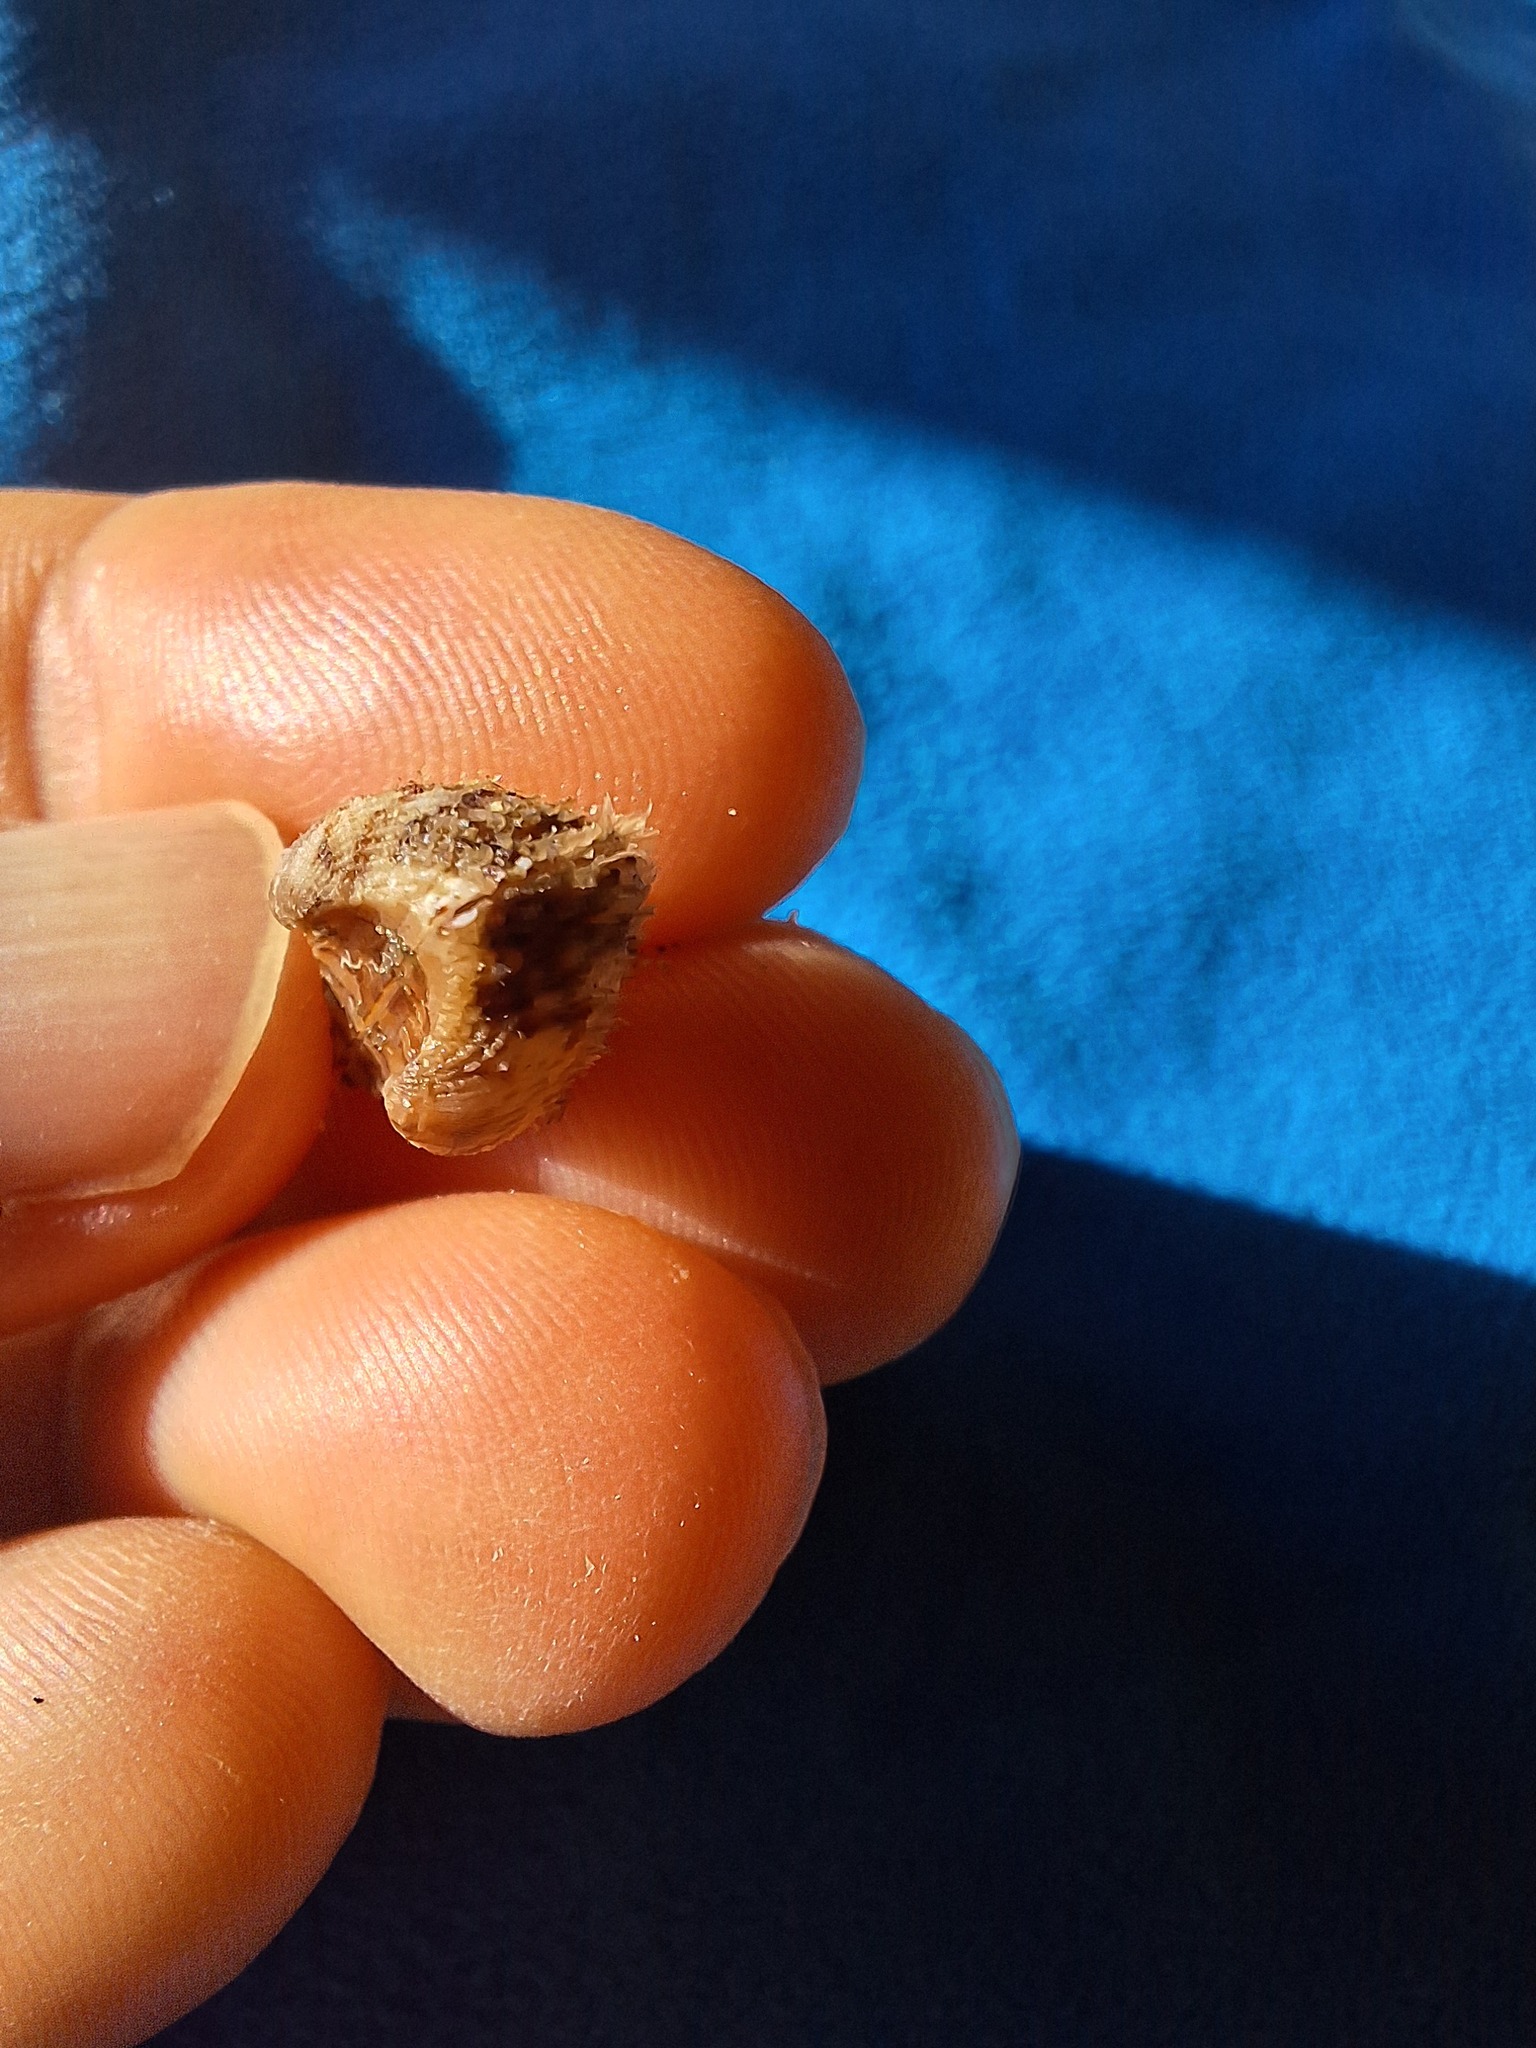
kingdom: Animalia
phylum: Mollusca
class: Bivalvia
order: Arcida
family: Arcidae
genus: Arca
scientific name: Arca noae
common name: Noah's arch
